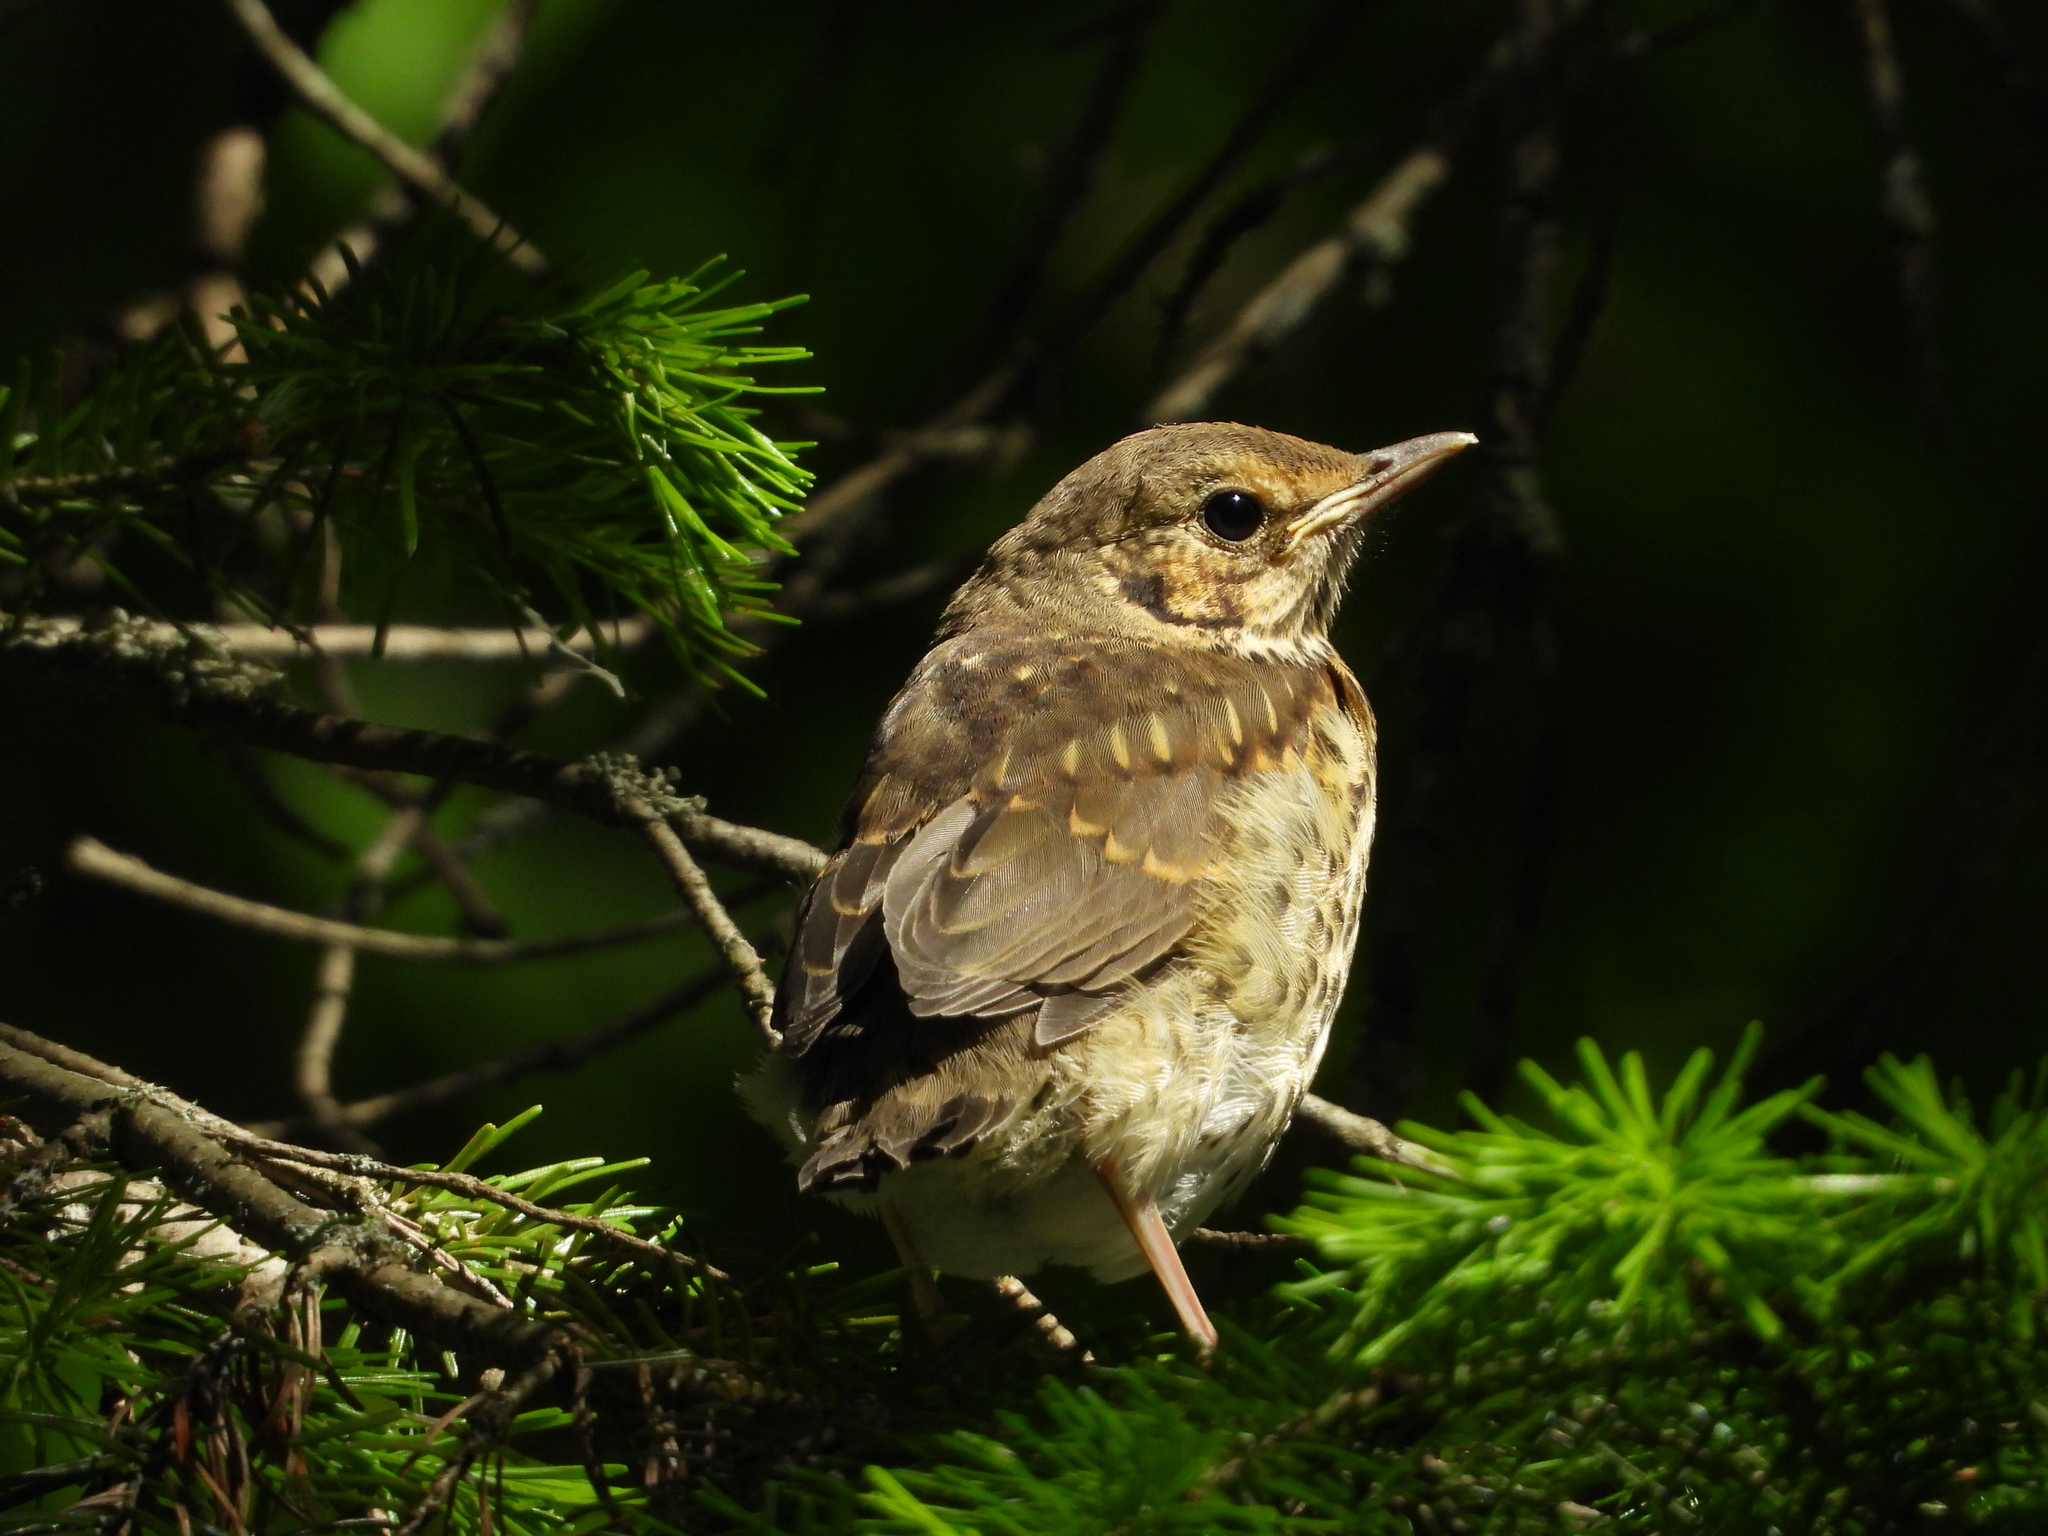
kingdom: Animalia
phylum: Chordata
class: Aves
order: Passeriformes
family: Turdidae
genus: Turdus
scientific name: Turdus philomelos
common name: Song thrush
